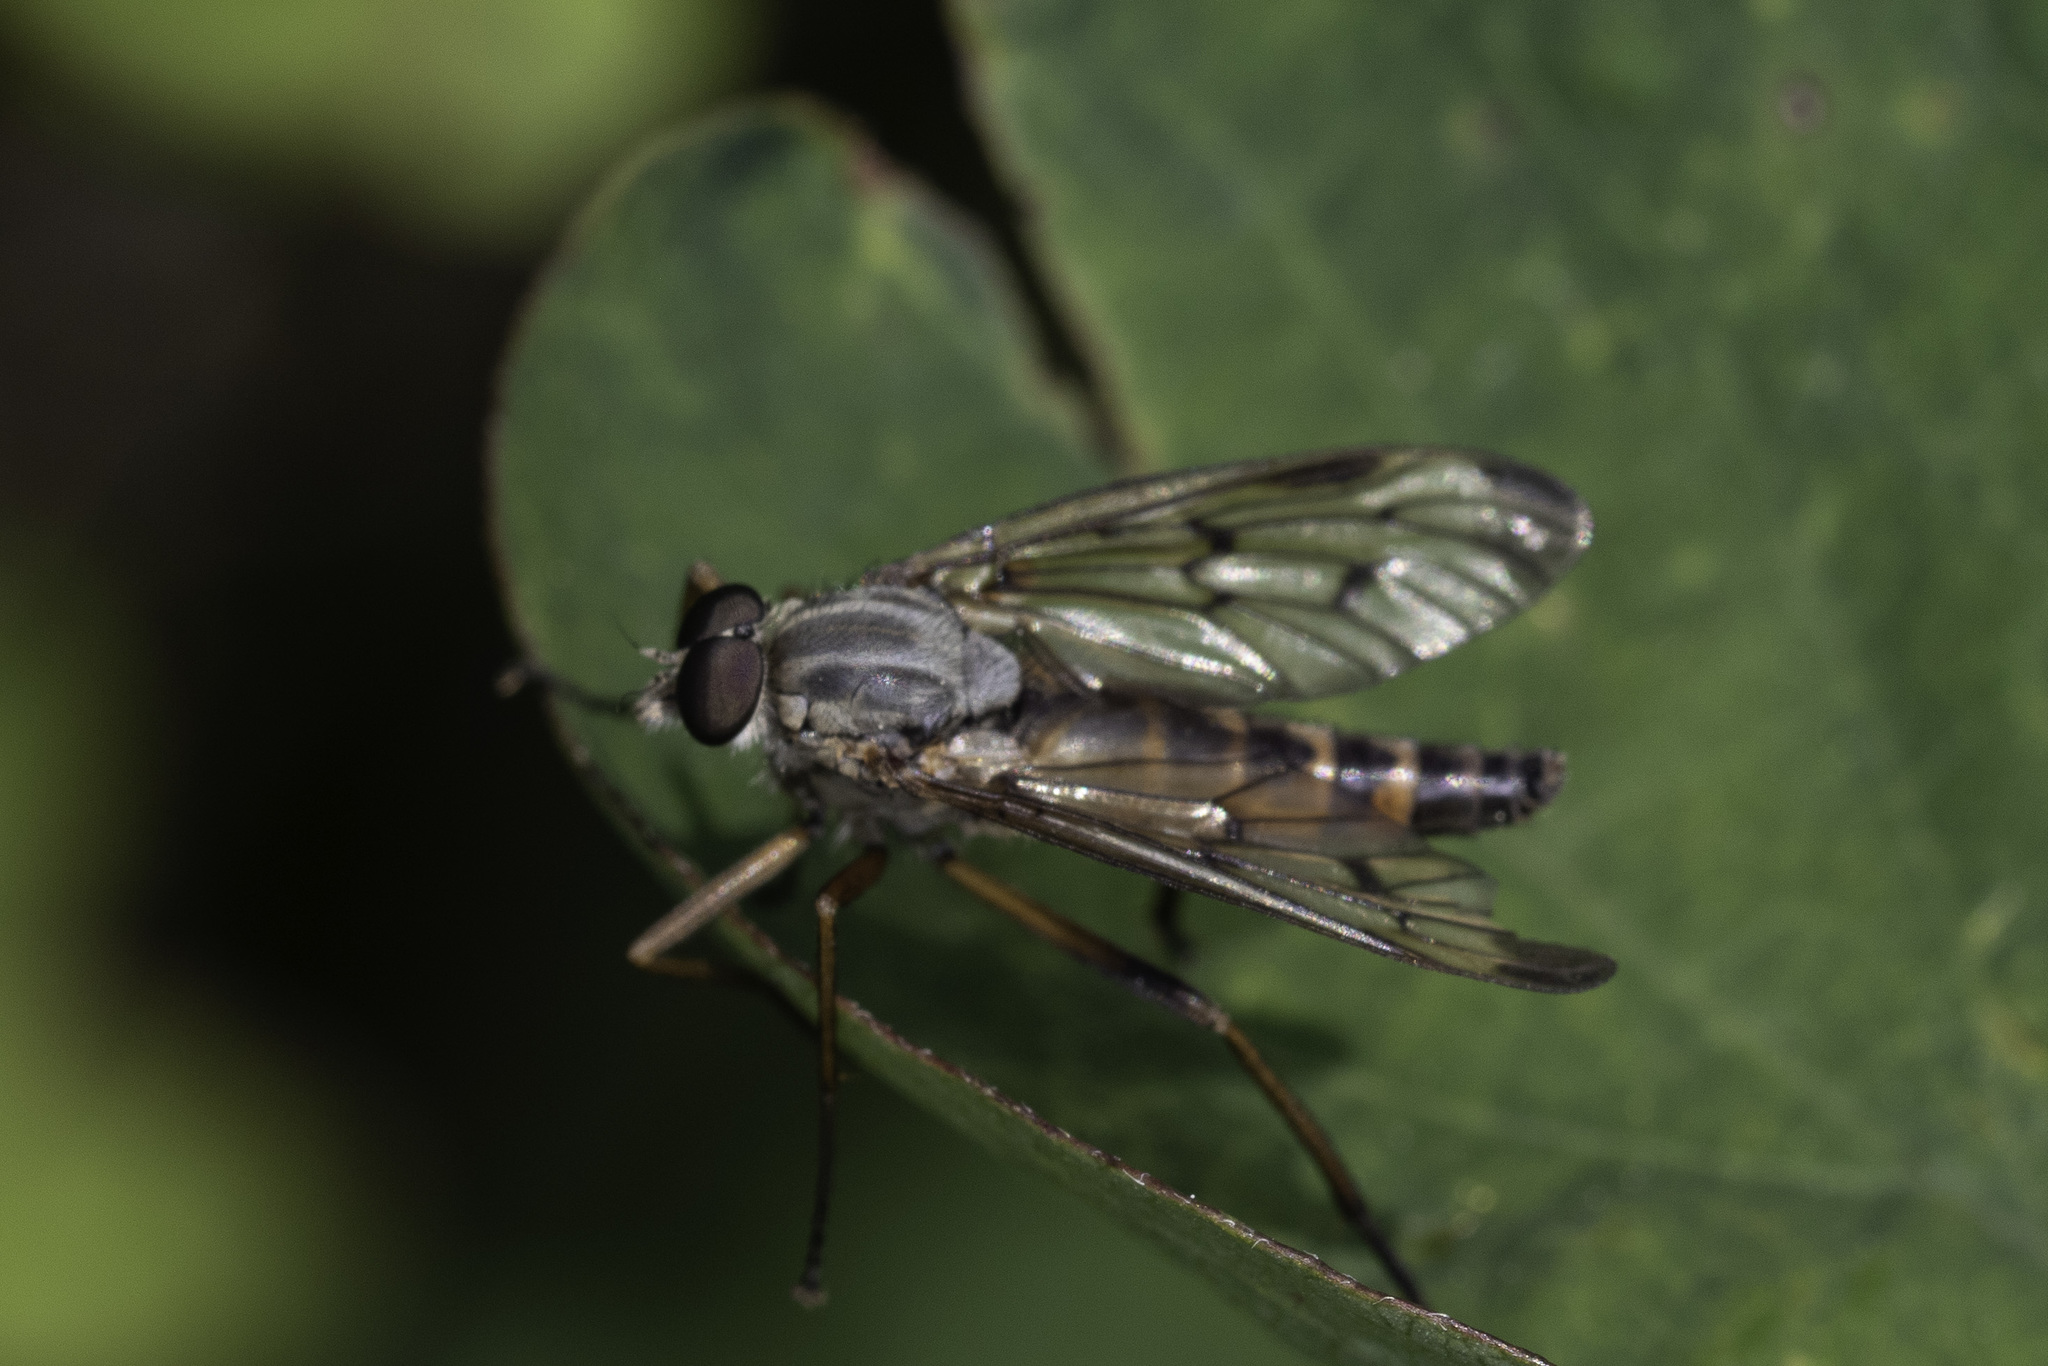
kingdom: Animalia
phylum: Arthropoda
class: Insecta
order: Diptera
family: Rhagionidae
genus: Rhagio
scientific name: Rhagio scolopacea
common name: Downlooker snipefly
